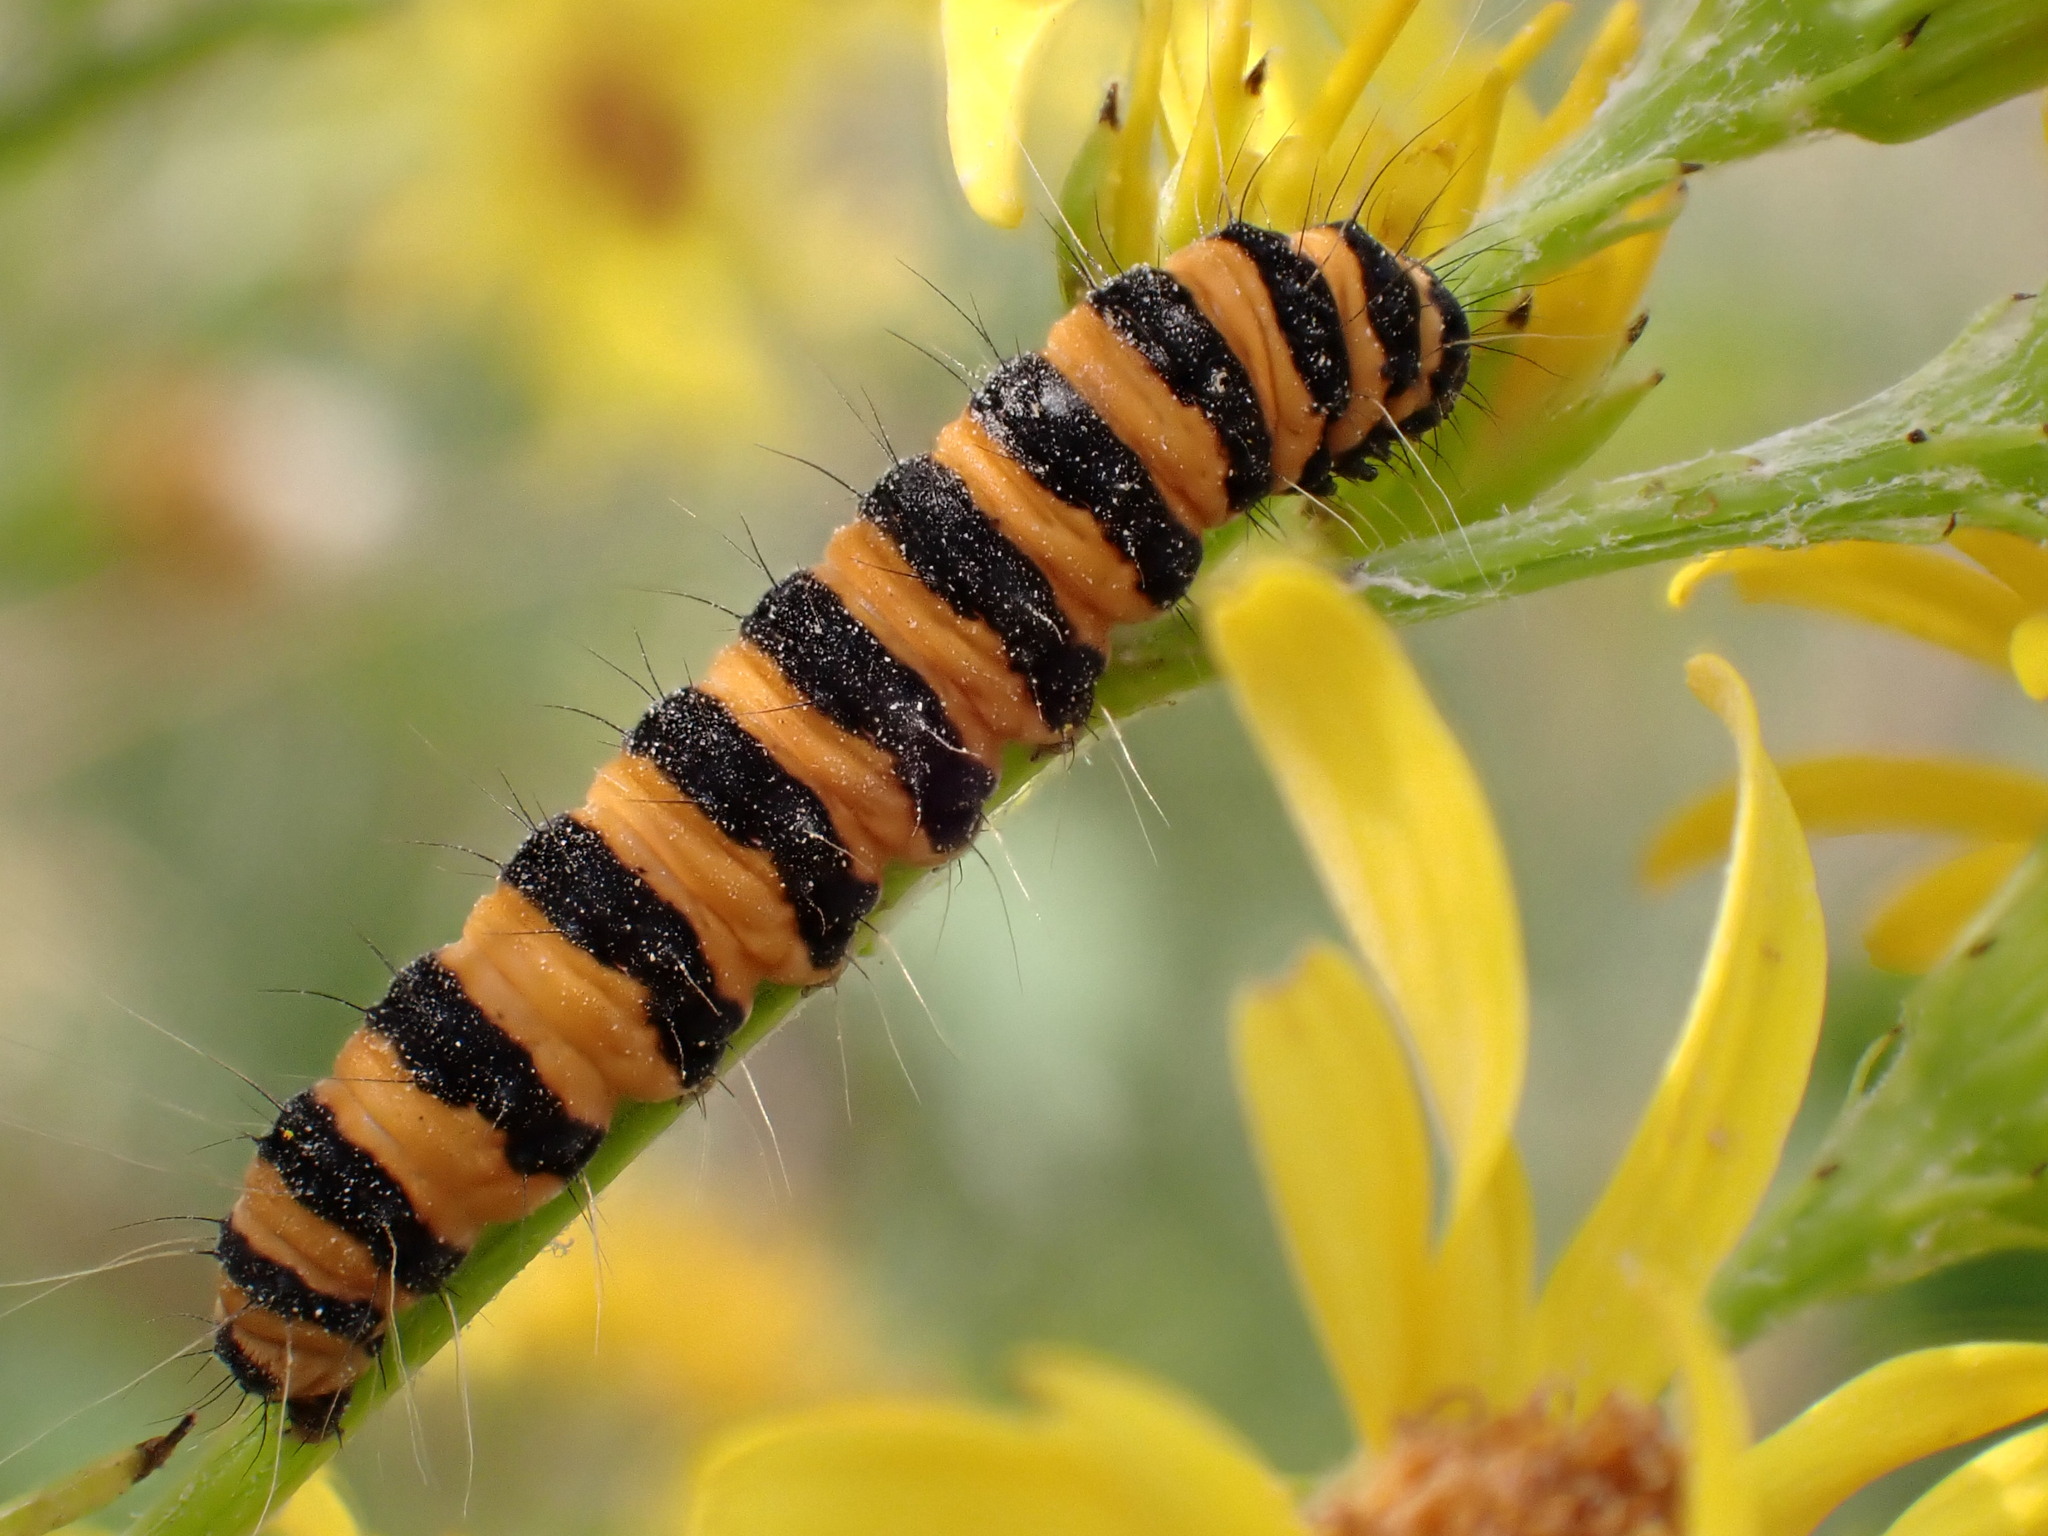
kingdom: Animalia
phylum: Arthropoda
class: Insecta
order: Lepidoptera
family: Erebidae
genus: Tyria
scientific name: Tyria jacobaeae
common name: Cinnabar
